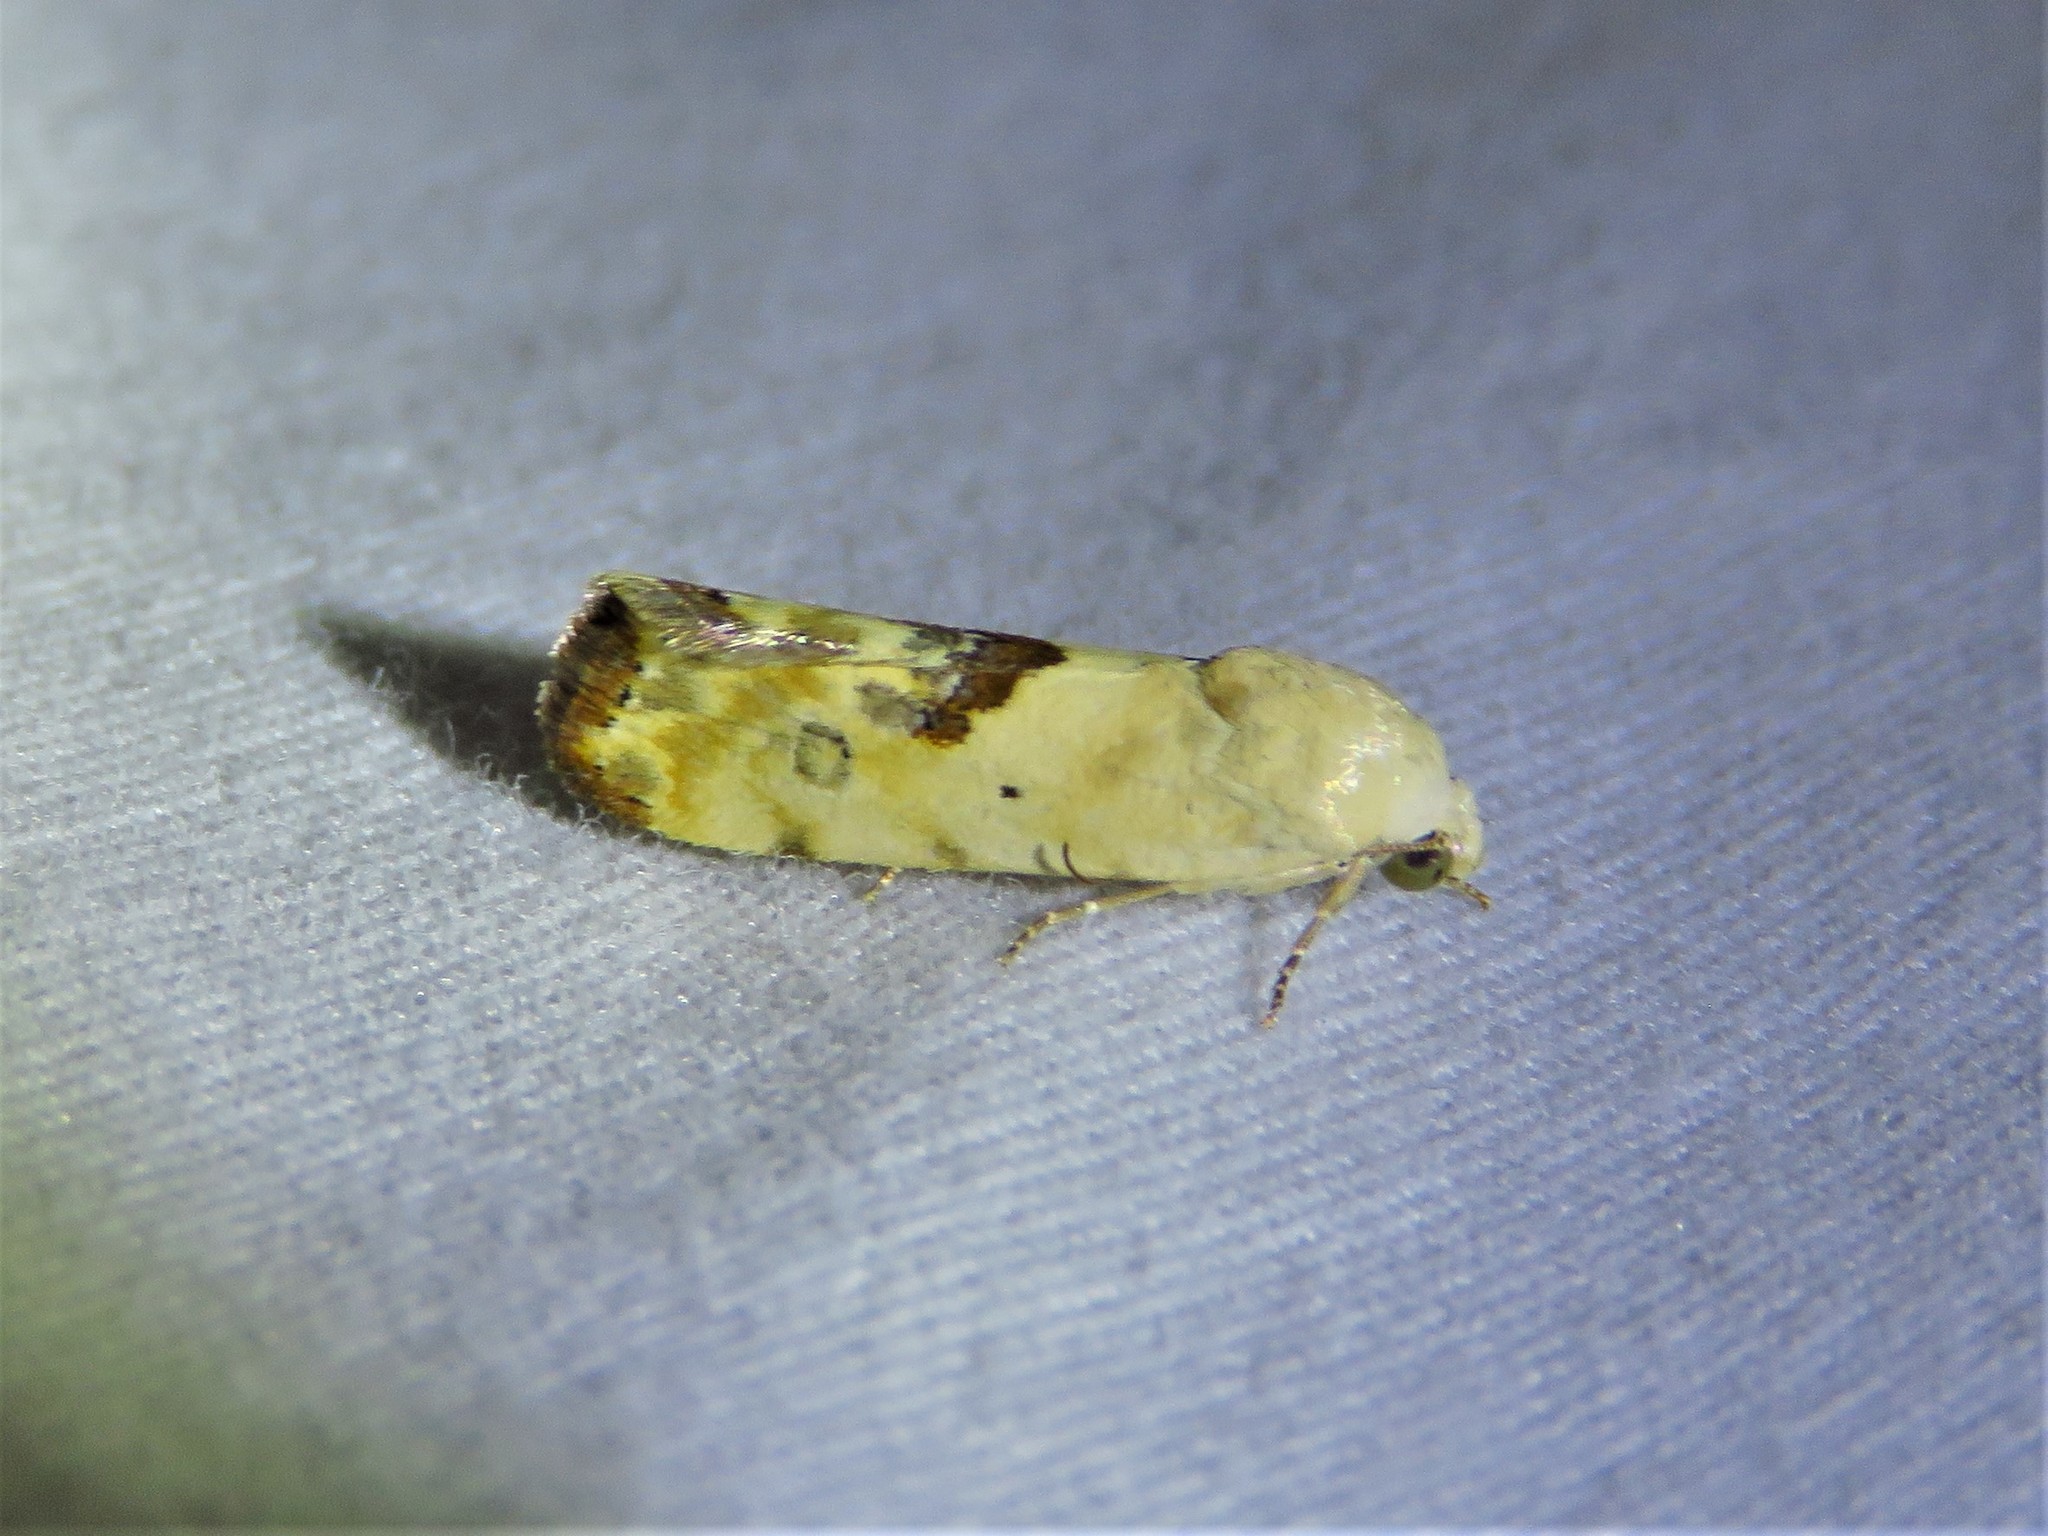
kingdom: Animalia
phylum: Arthropoda
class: Insecta
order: Lepidoptera
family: Noctuidae
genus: Acontia
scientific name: Acontia libedis
